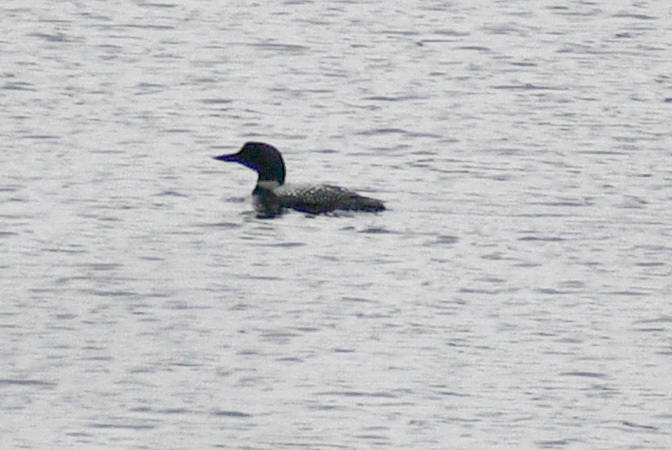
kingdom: Animalia
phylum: Chordata
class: Aves
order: Gaviiformes
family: Gaviidae
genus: Gavia
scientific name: Gavia immer
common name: Common loon
